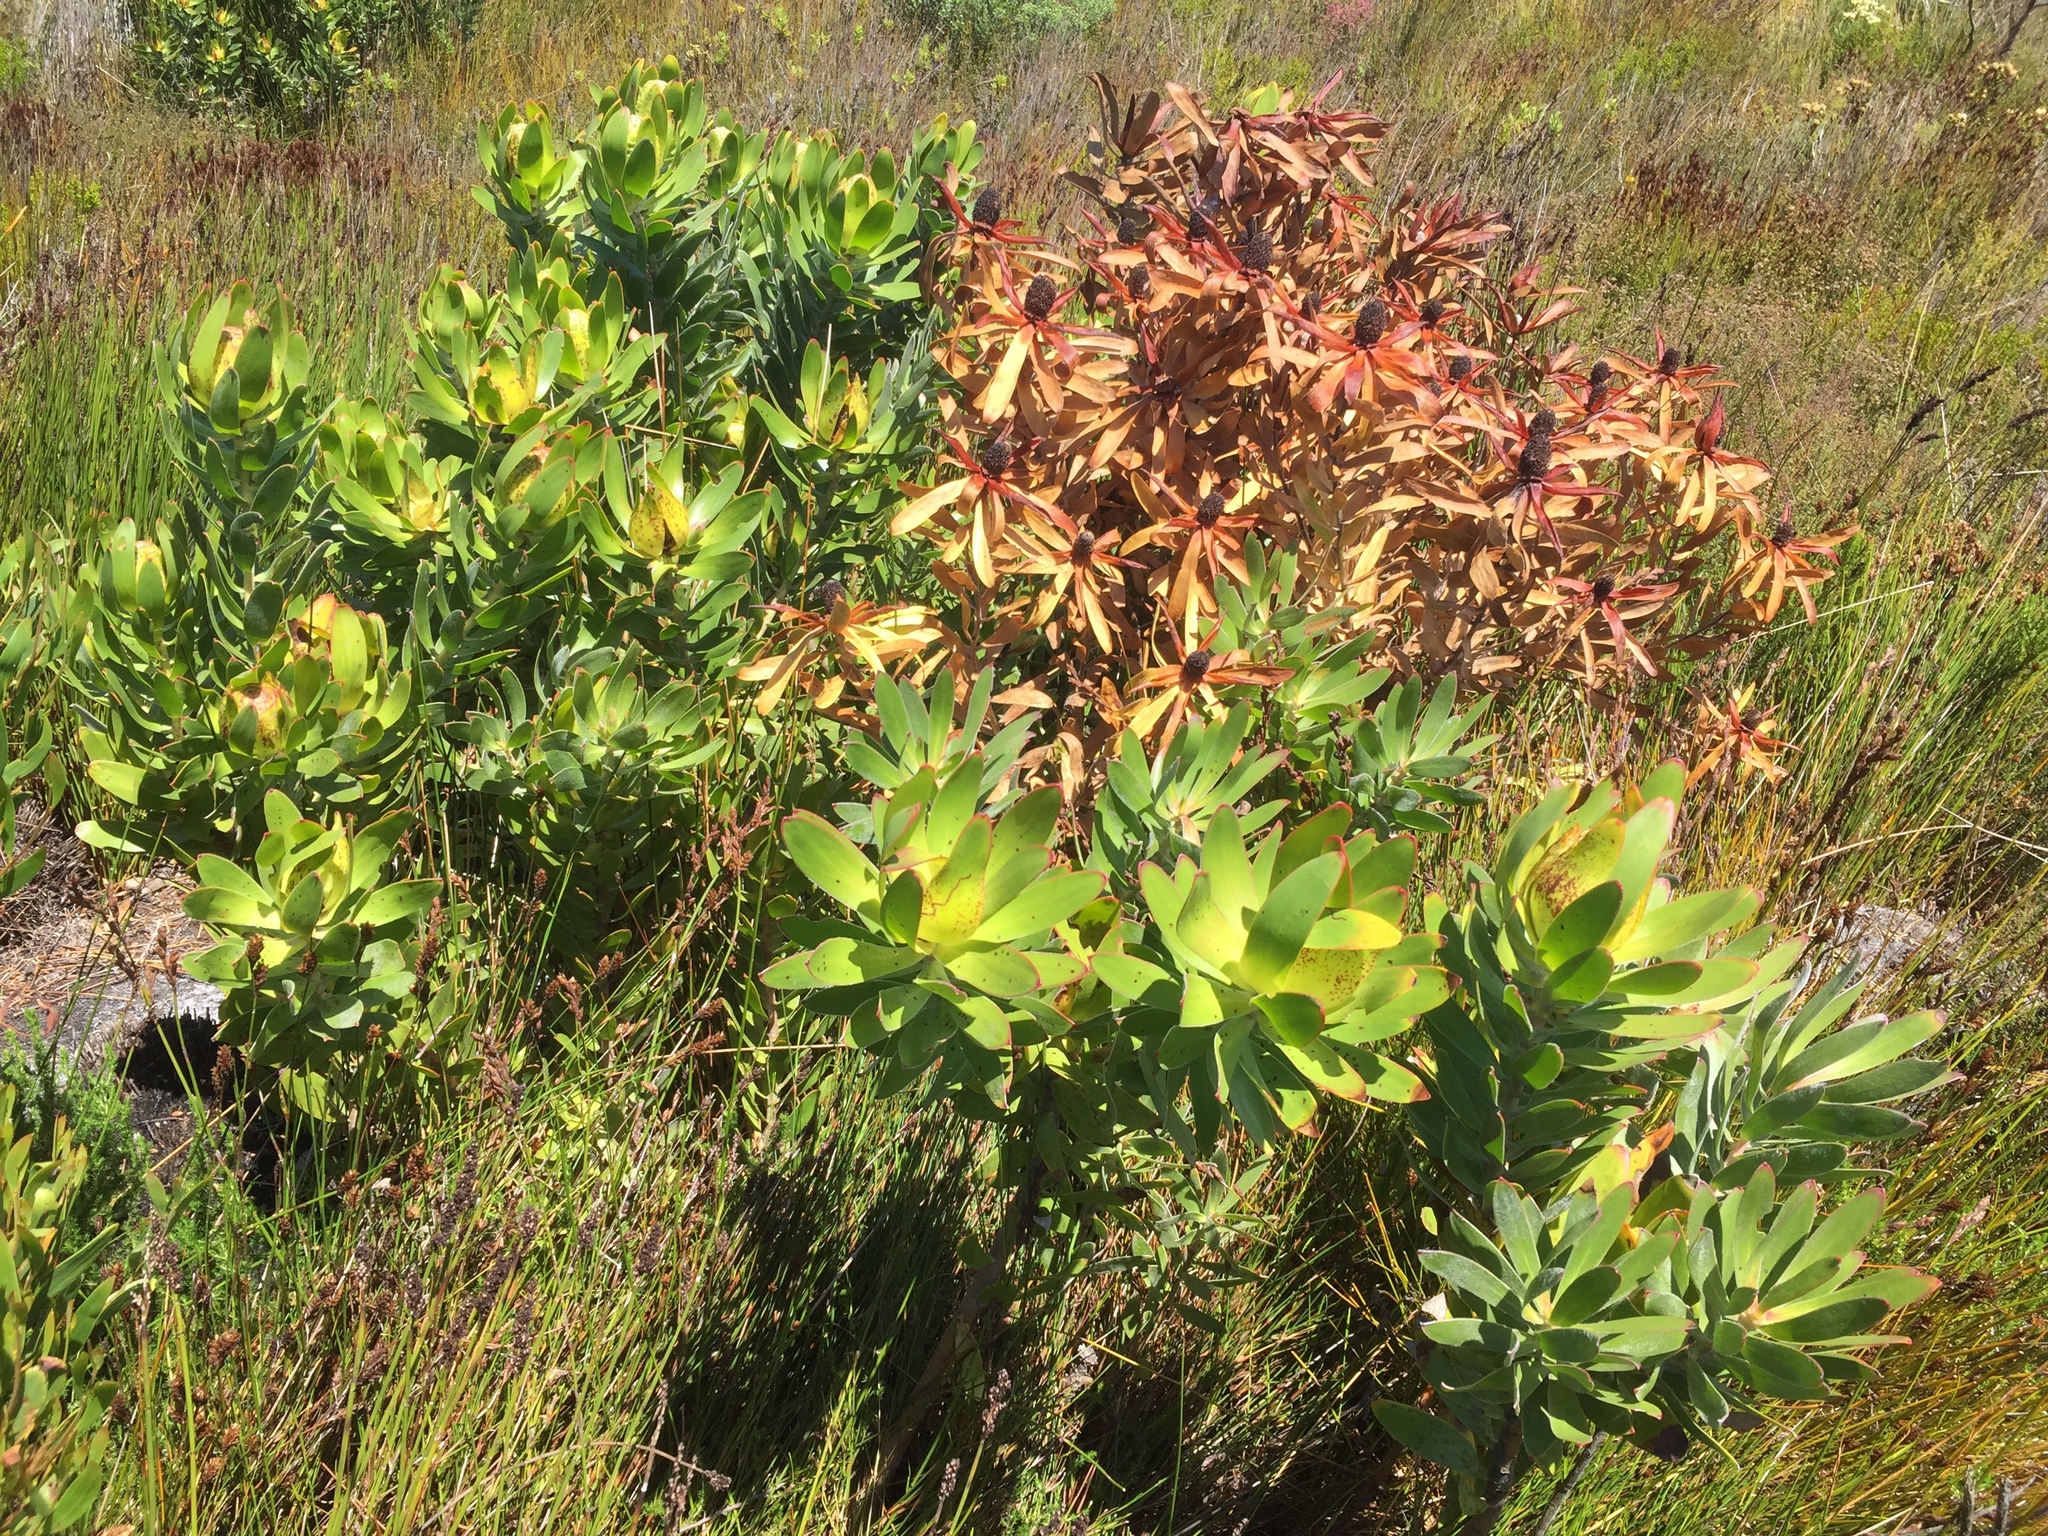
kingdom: Plantae
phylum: Tracheophyta
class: Magnoliopsida
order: Proteales
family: Proteaceae
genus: Leucadendron
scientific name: Leucadendron laureolum
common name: Golden sunshinebush
